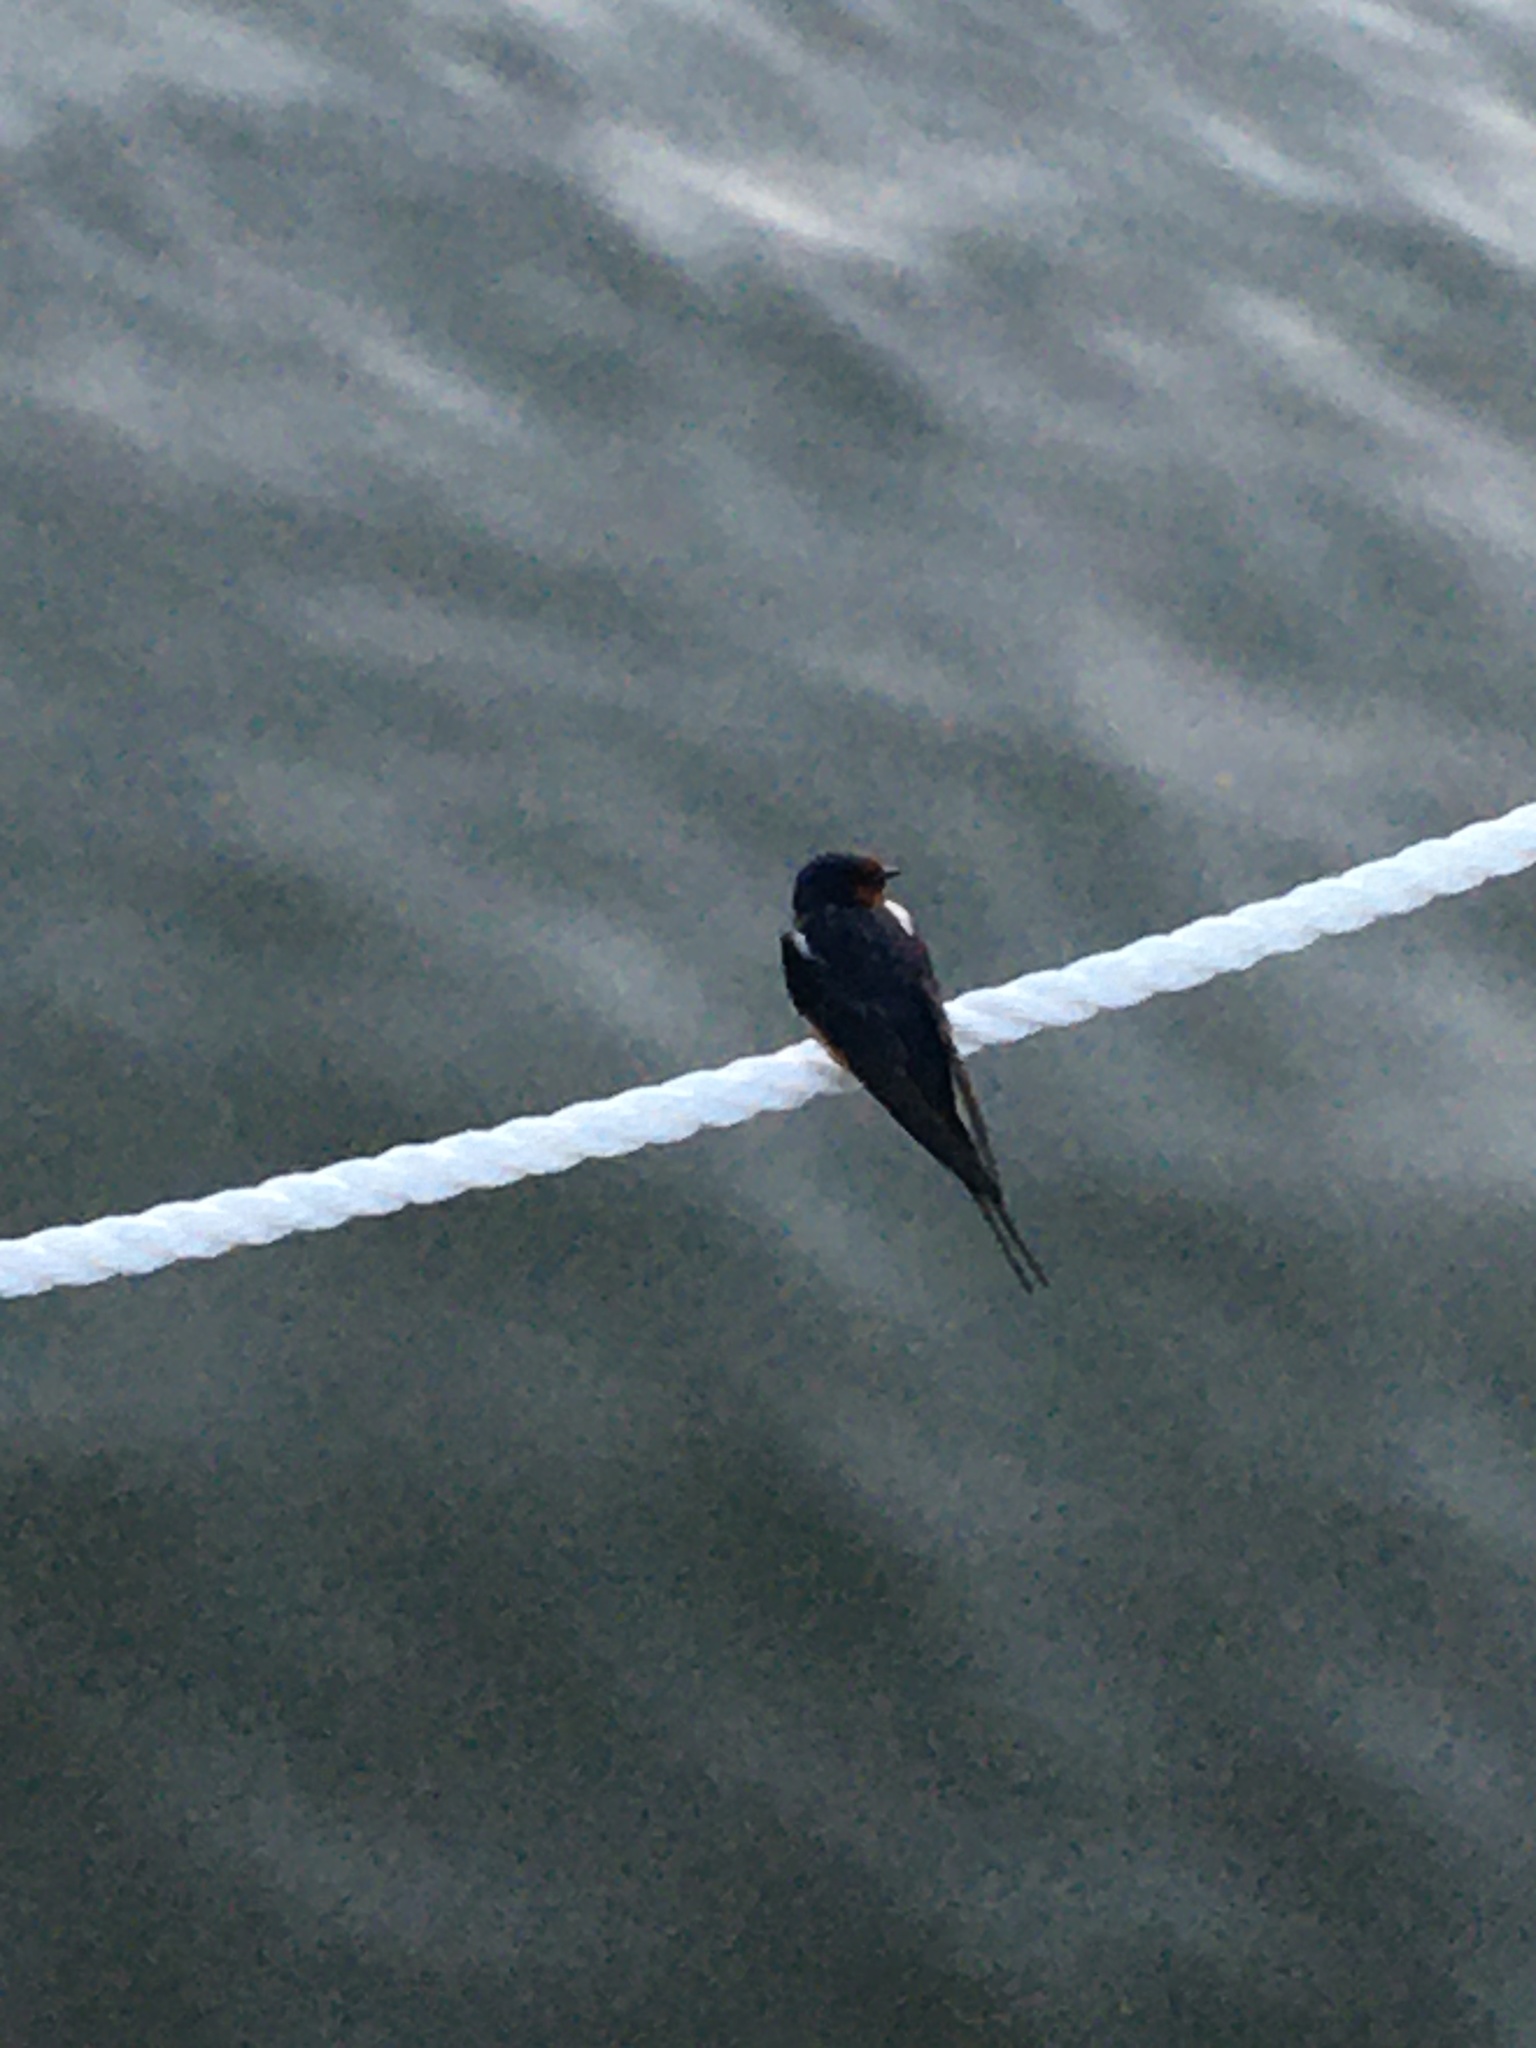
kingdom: Animalia
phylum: Chordata
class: Aves
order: Passeriformes
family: Hirundinidae
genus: Hirundo
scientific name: Hirundo rustica
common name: Barn swallow
